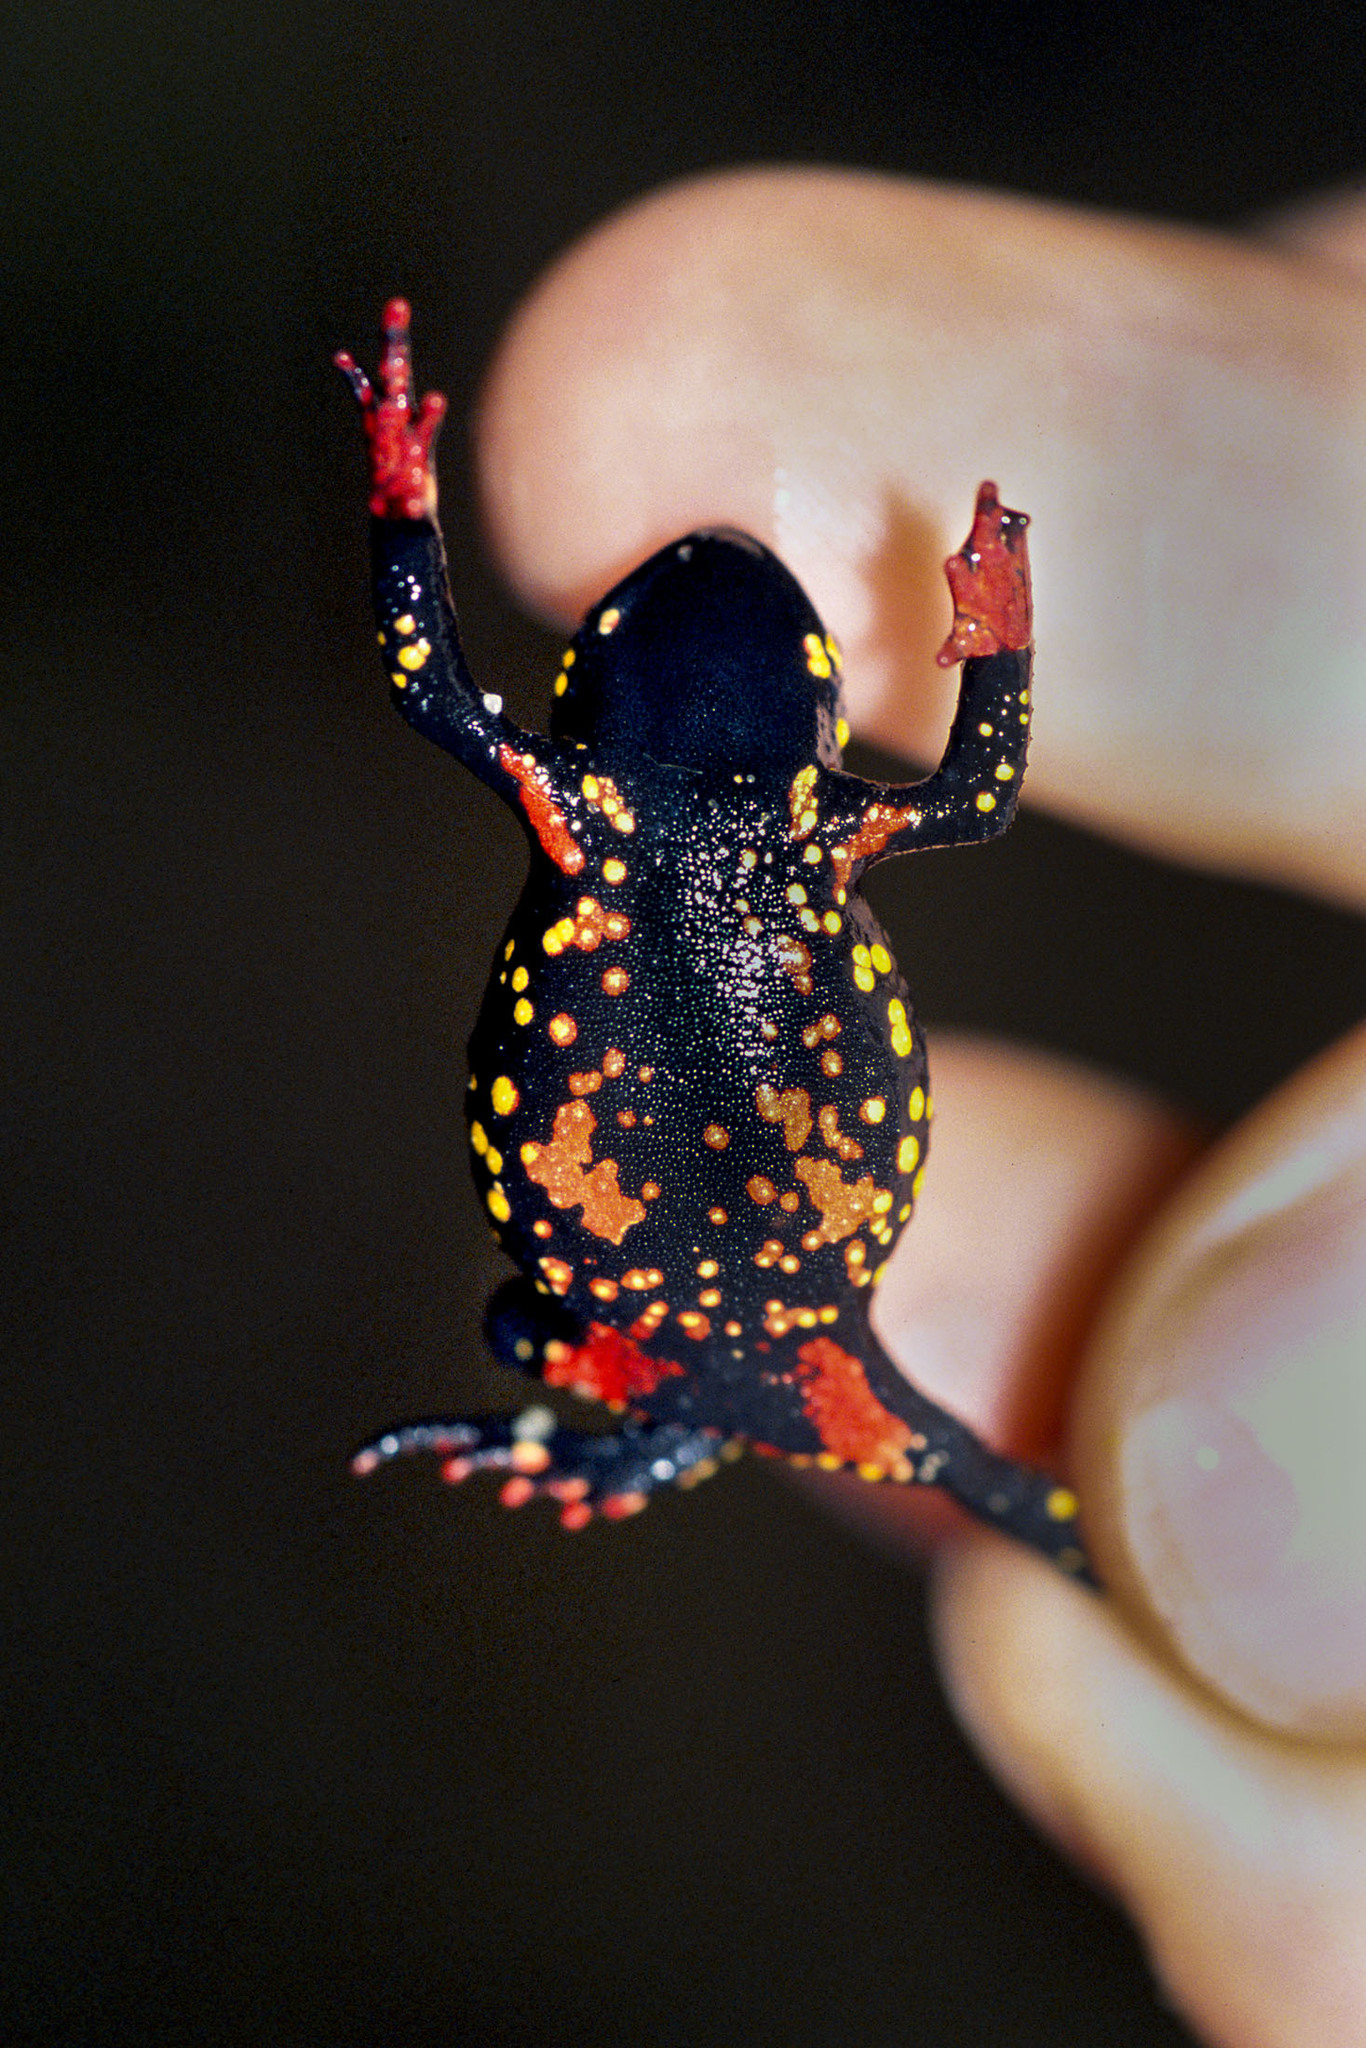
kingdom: Animalia
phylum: Chordata
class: Amphibia
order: Anura
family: Bufonidae
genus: Melanophryniscus
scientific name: Melanophryniscus montevidensis
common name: Montevideo redbelly toad
